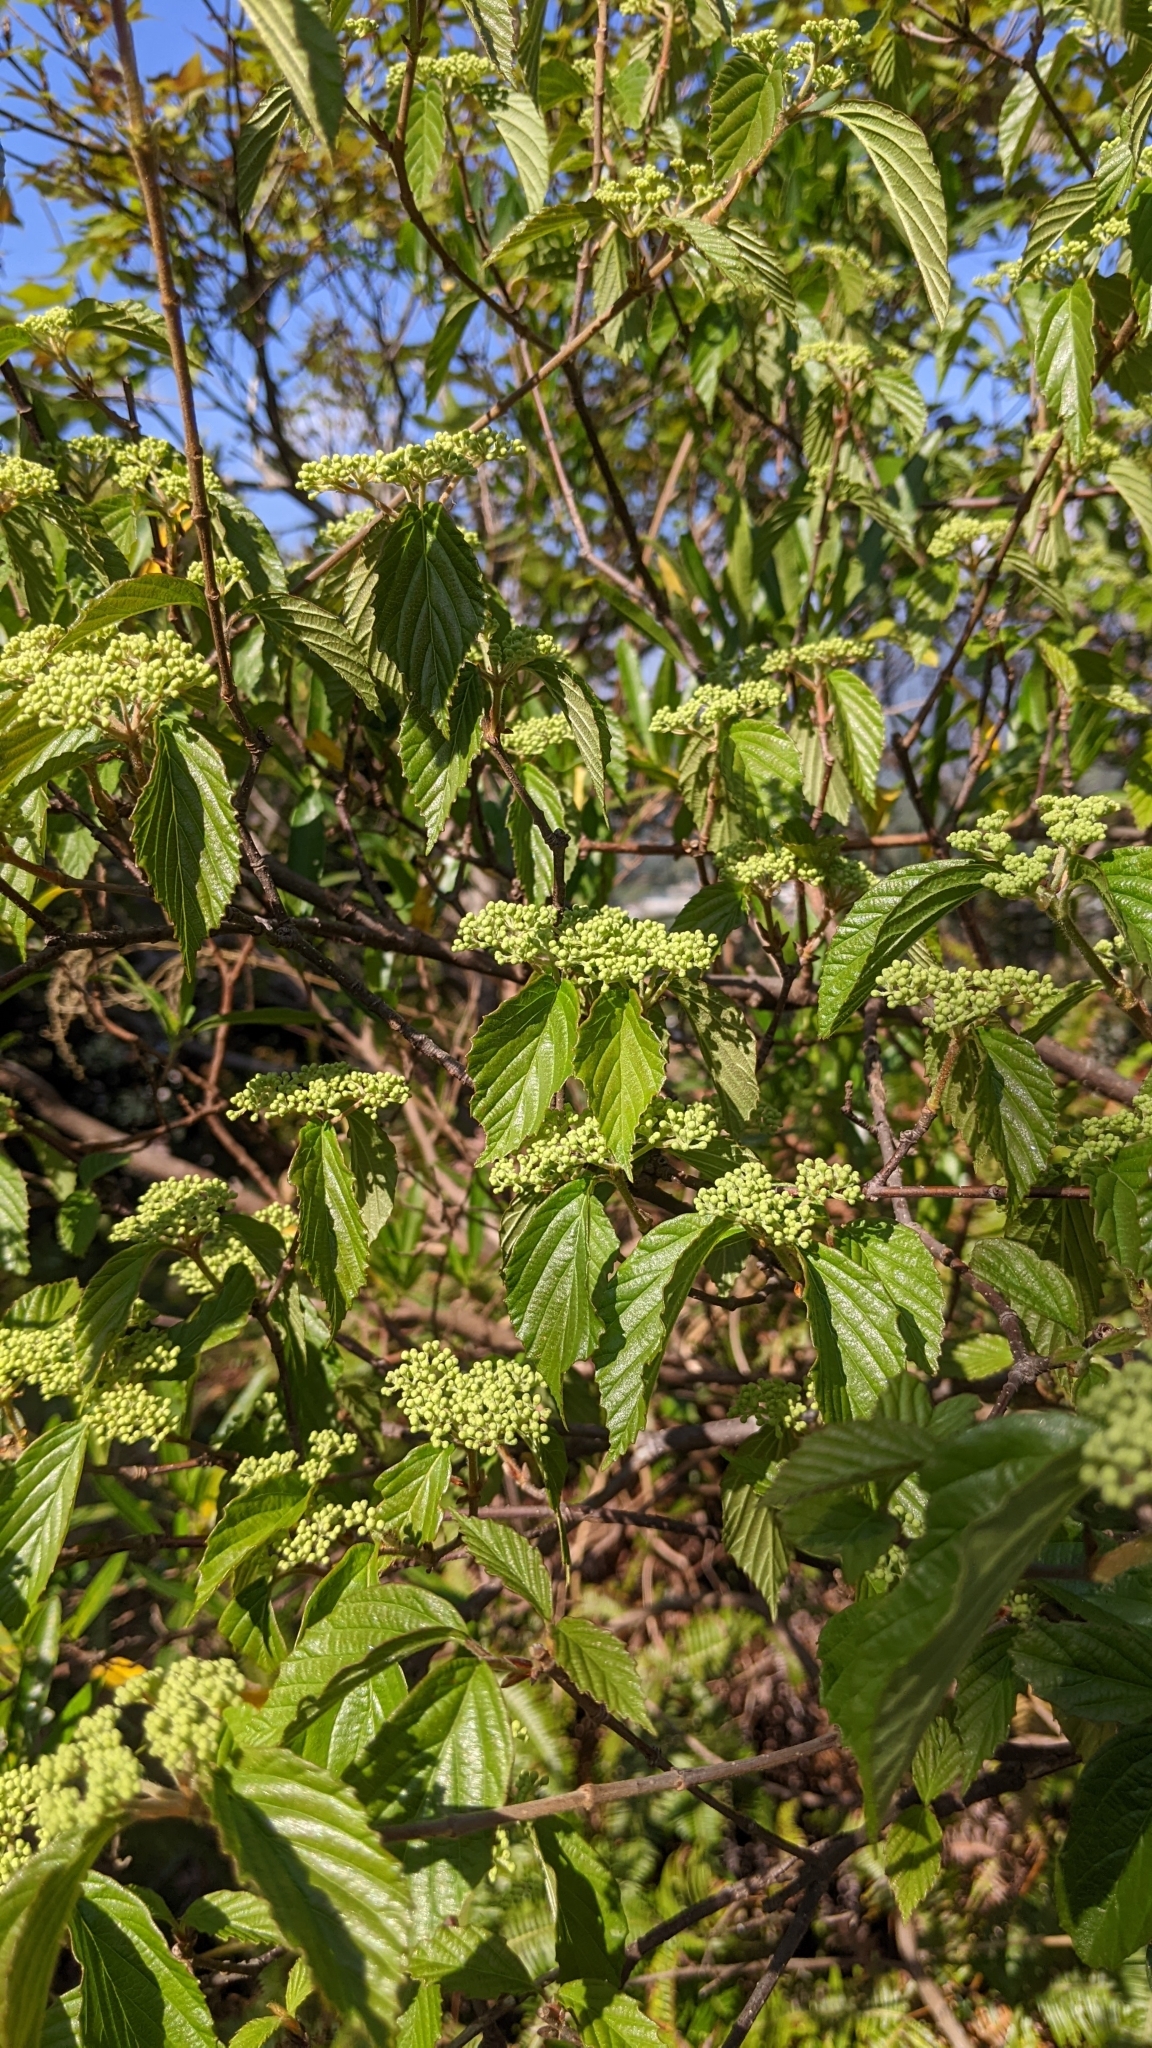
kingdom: Plantae
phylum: Tracheophyta
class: Magnoliopsida
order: Dipsacales
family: Viburnaceae
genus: Viburnum
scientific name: Viburnum luzonicum
